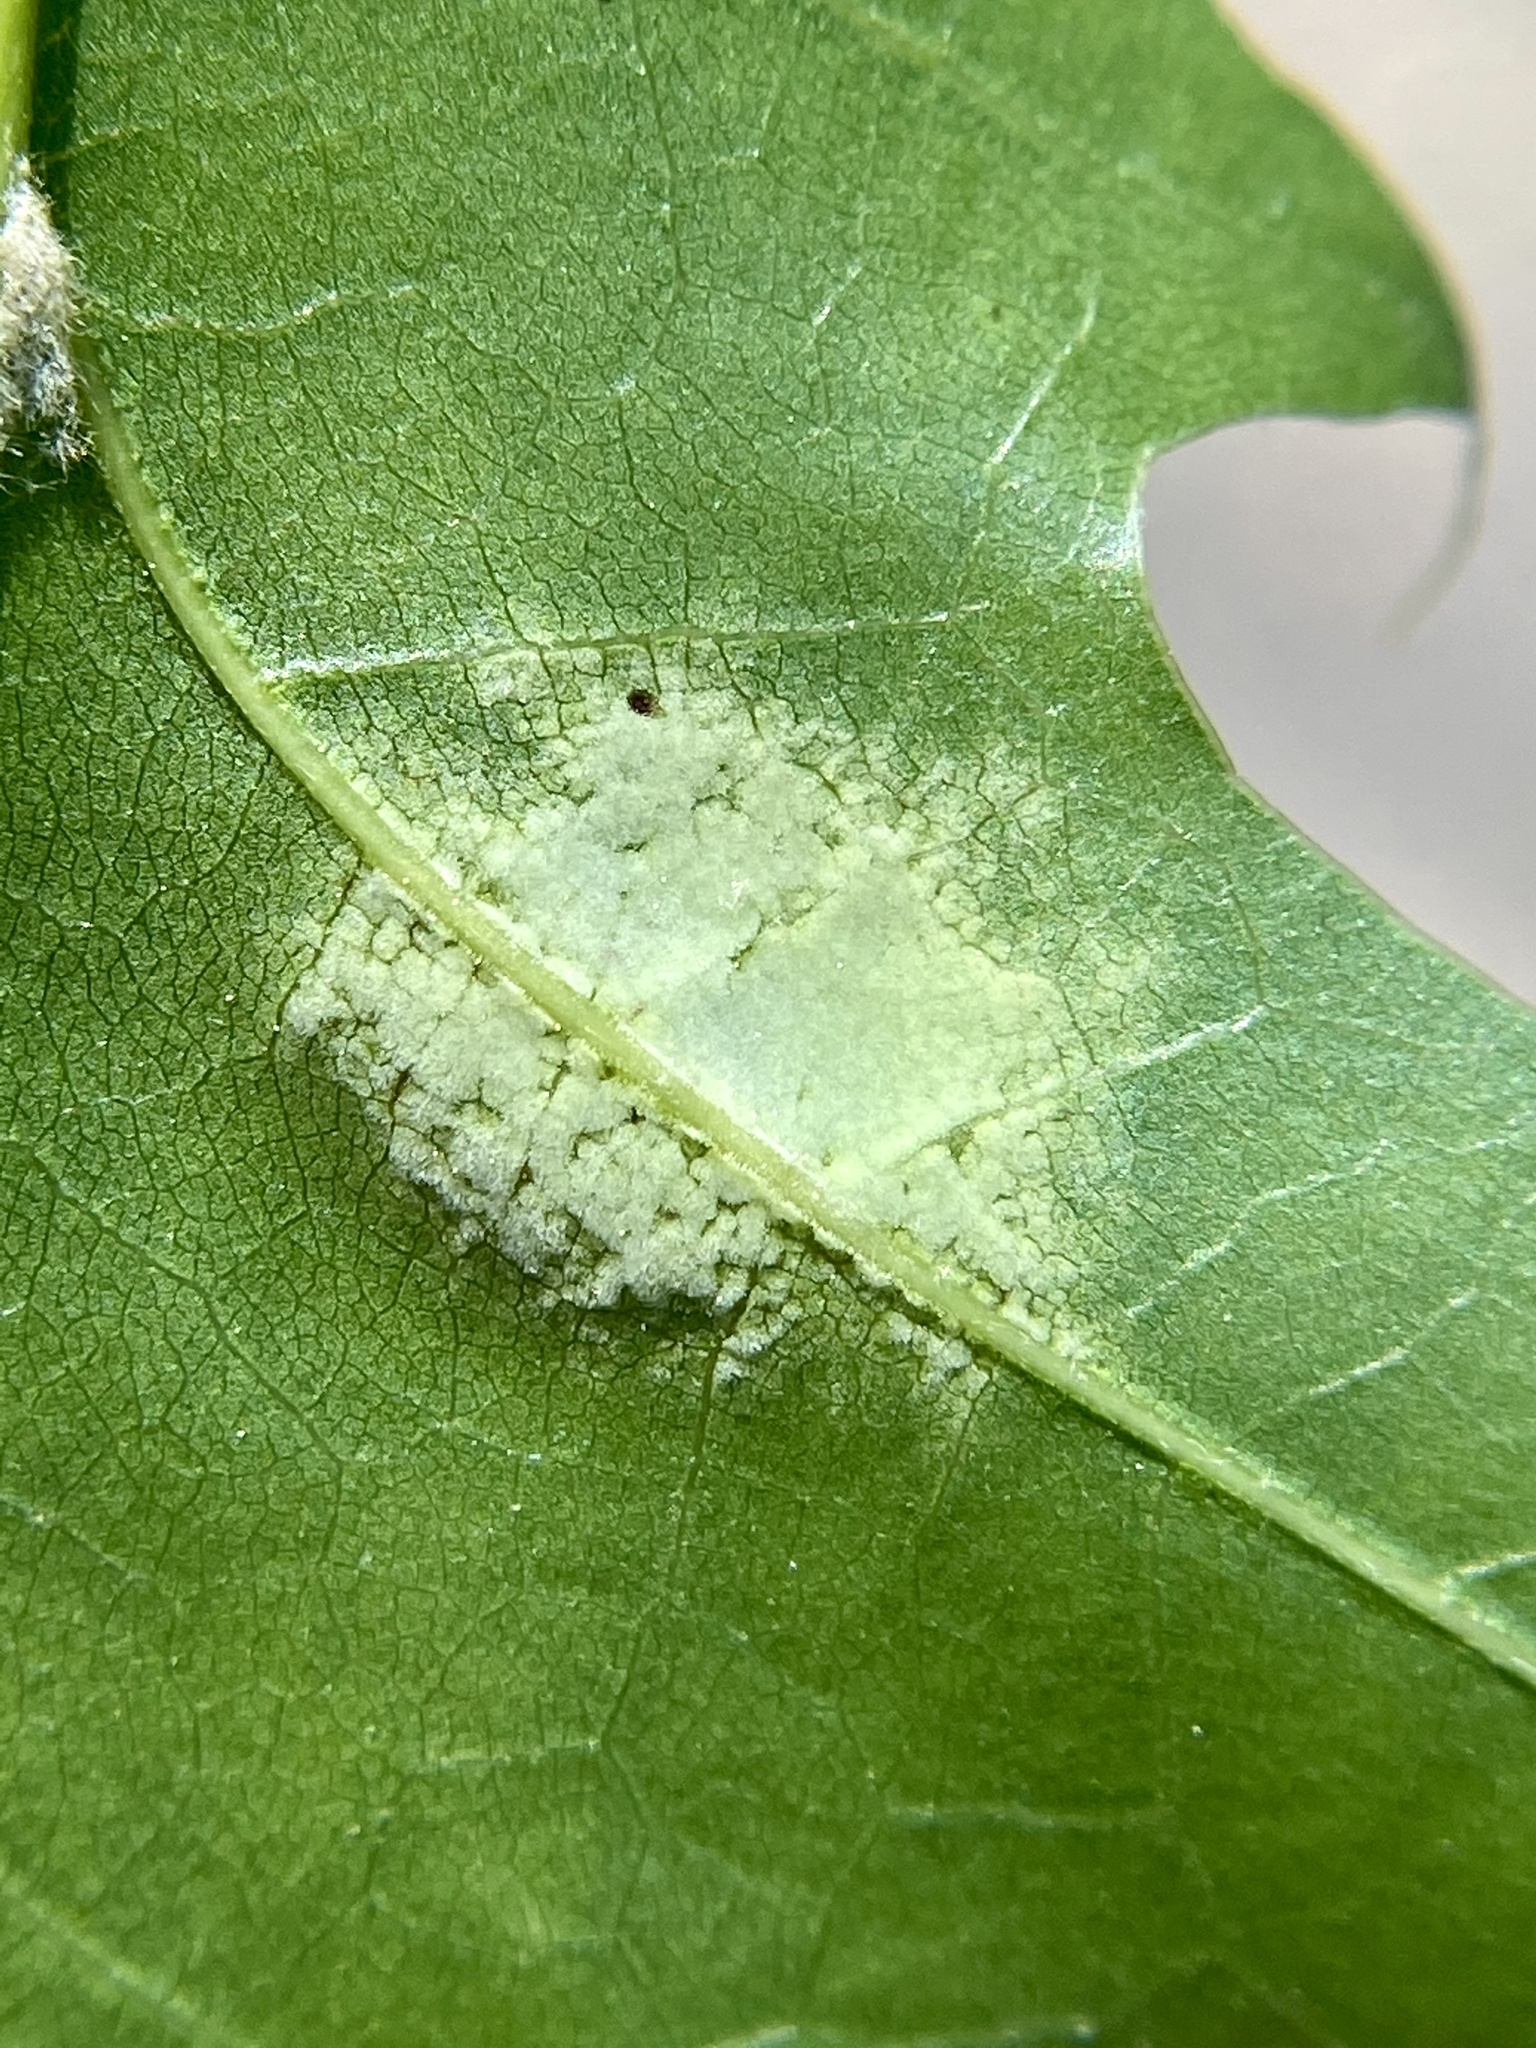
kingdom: Fungi
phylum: Ascomycota
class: Taphrinomycetes
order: Taphrinales
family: Taphrinaceae
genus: Taphrina
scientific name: Taphrina caerulescens
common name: Oak leaf blister
